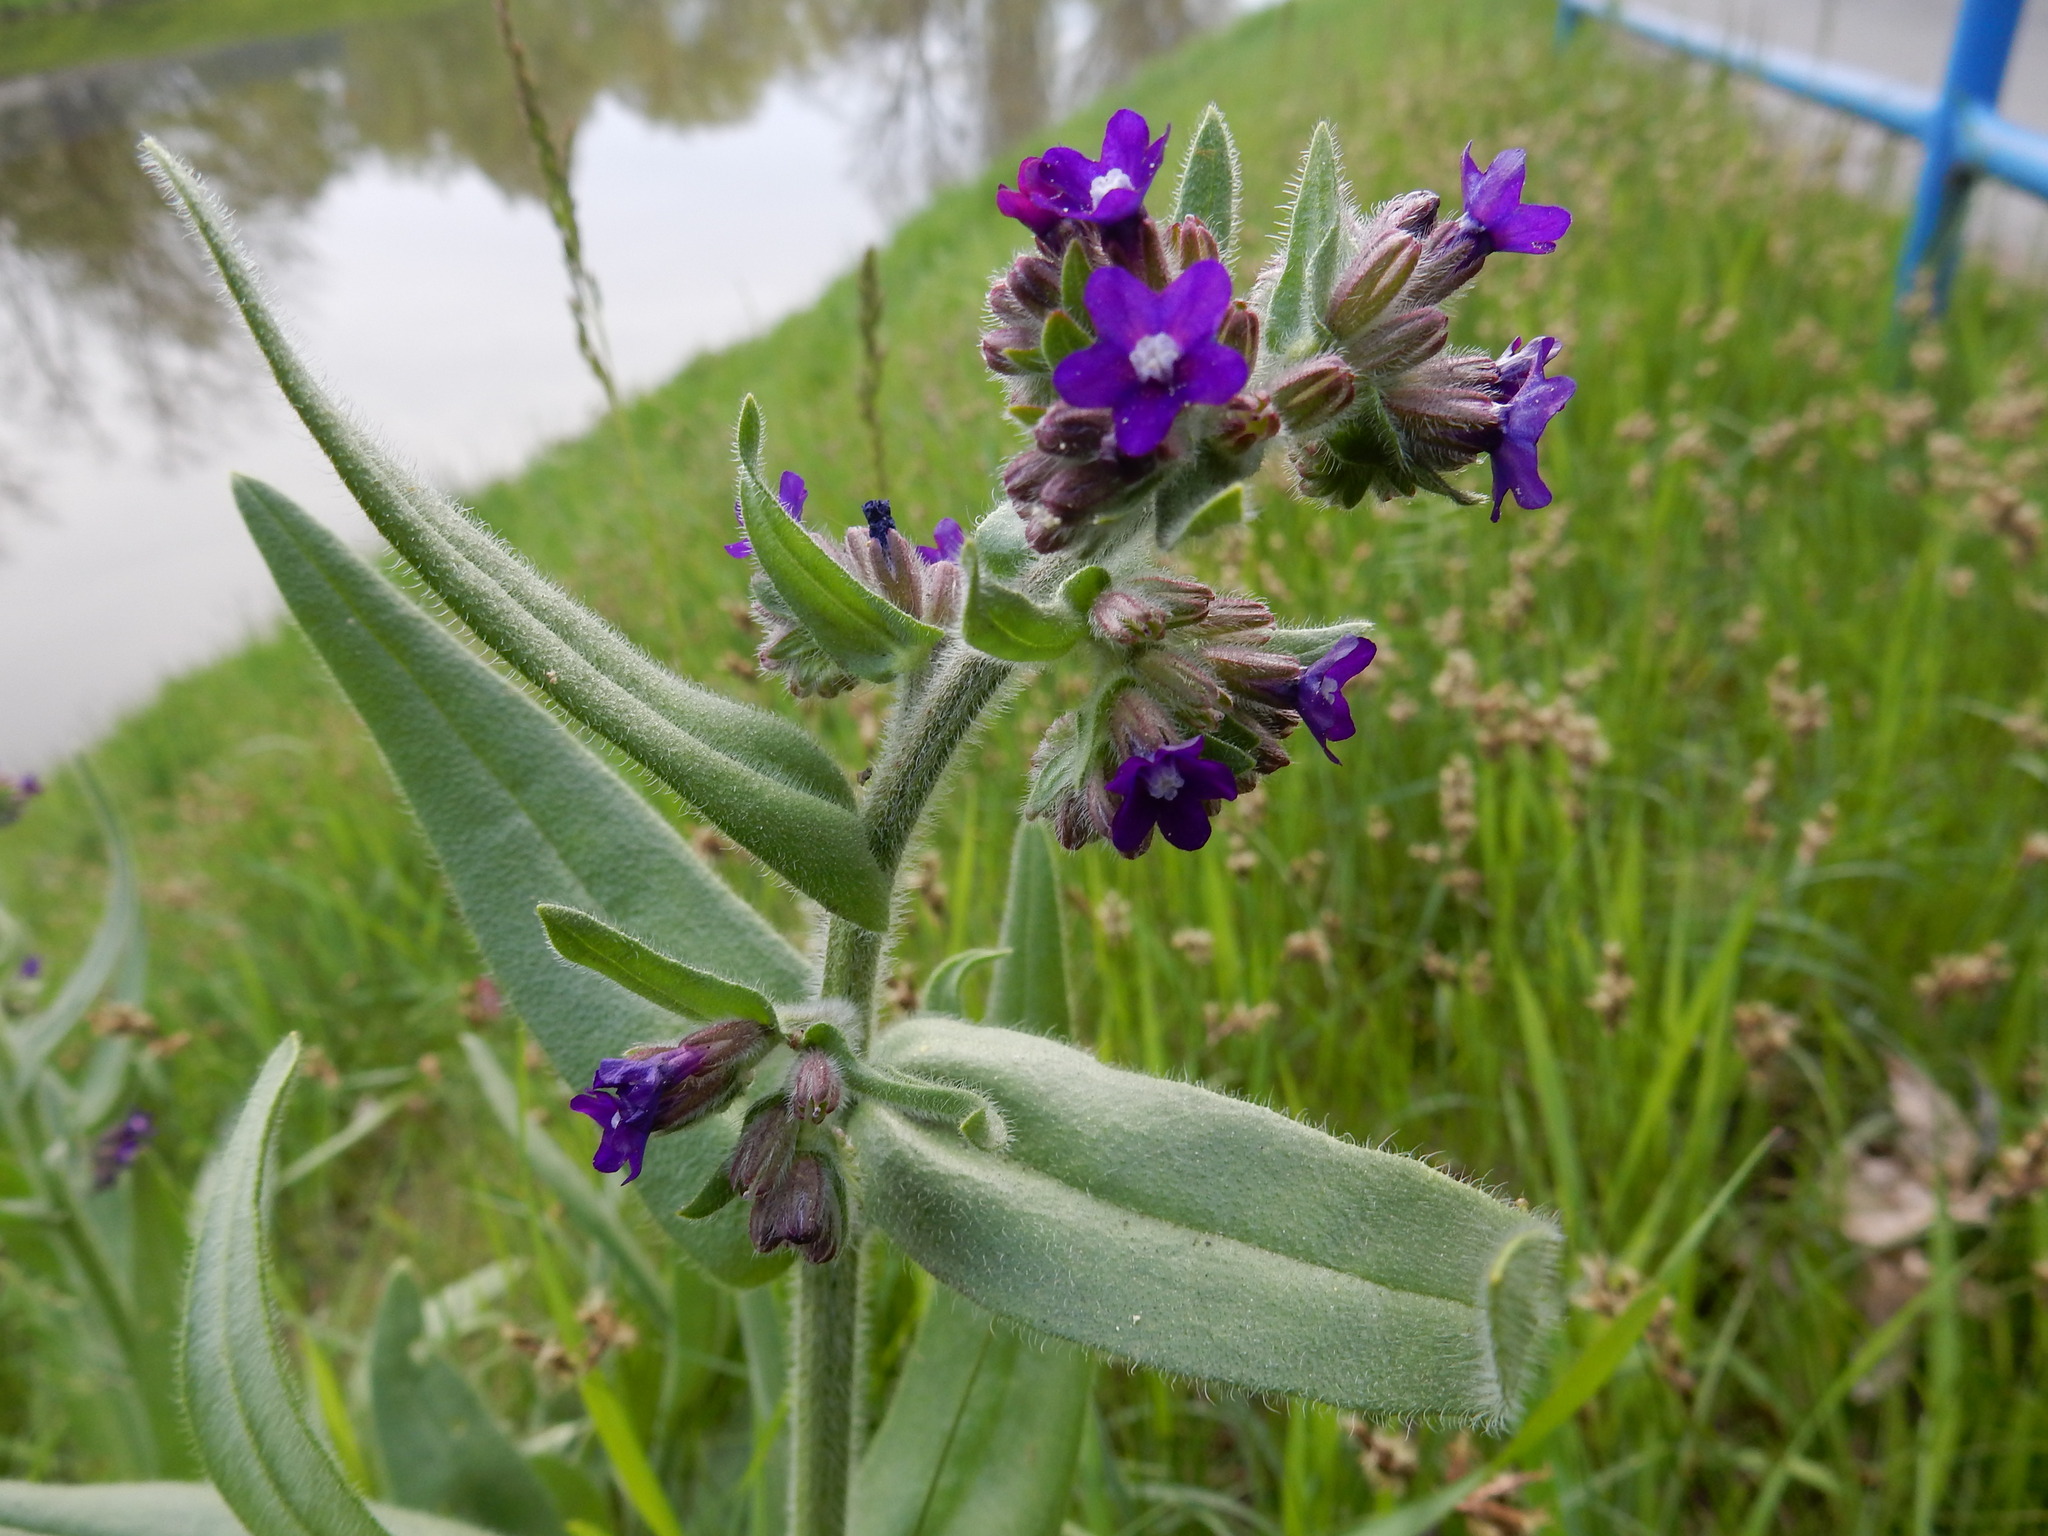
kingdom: Plantae
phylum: Tracheophyta
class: Magnoliopsida
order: Boraginales
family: Boraginaceae
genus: Anchusa
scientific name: Anchusa officinalis
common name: Alkanet
